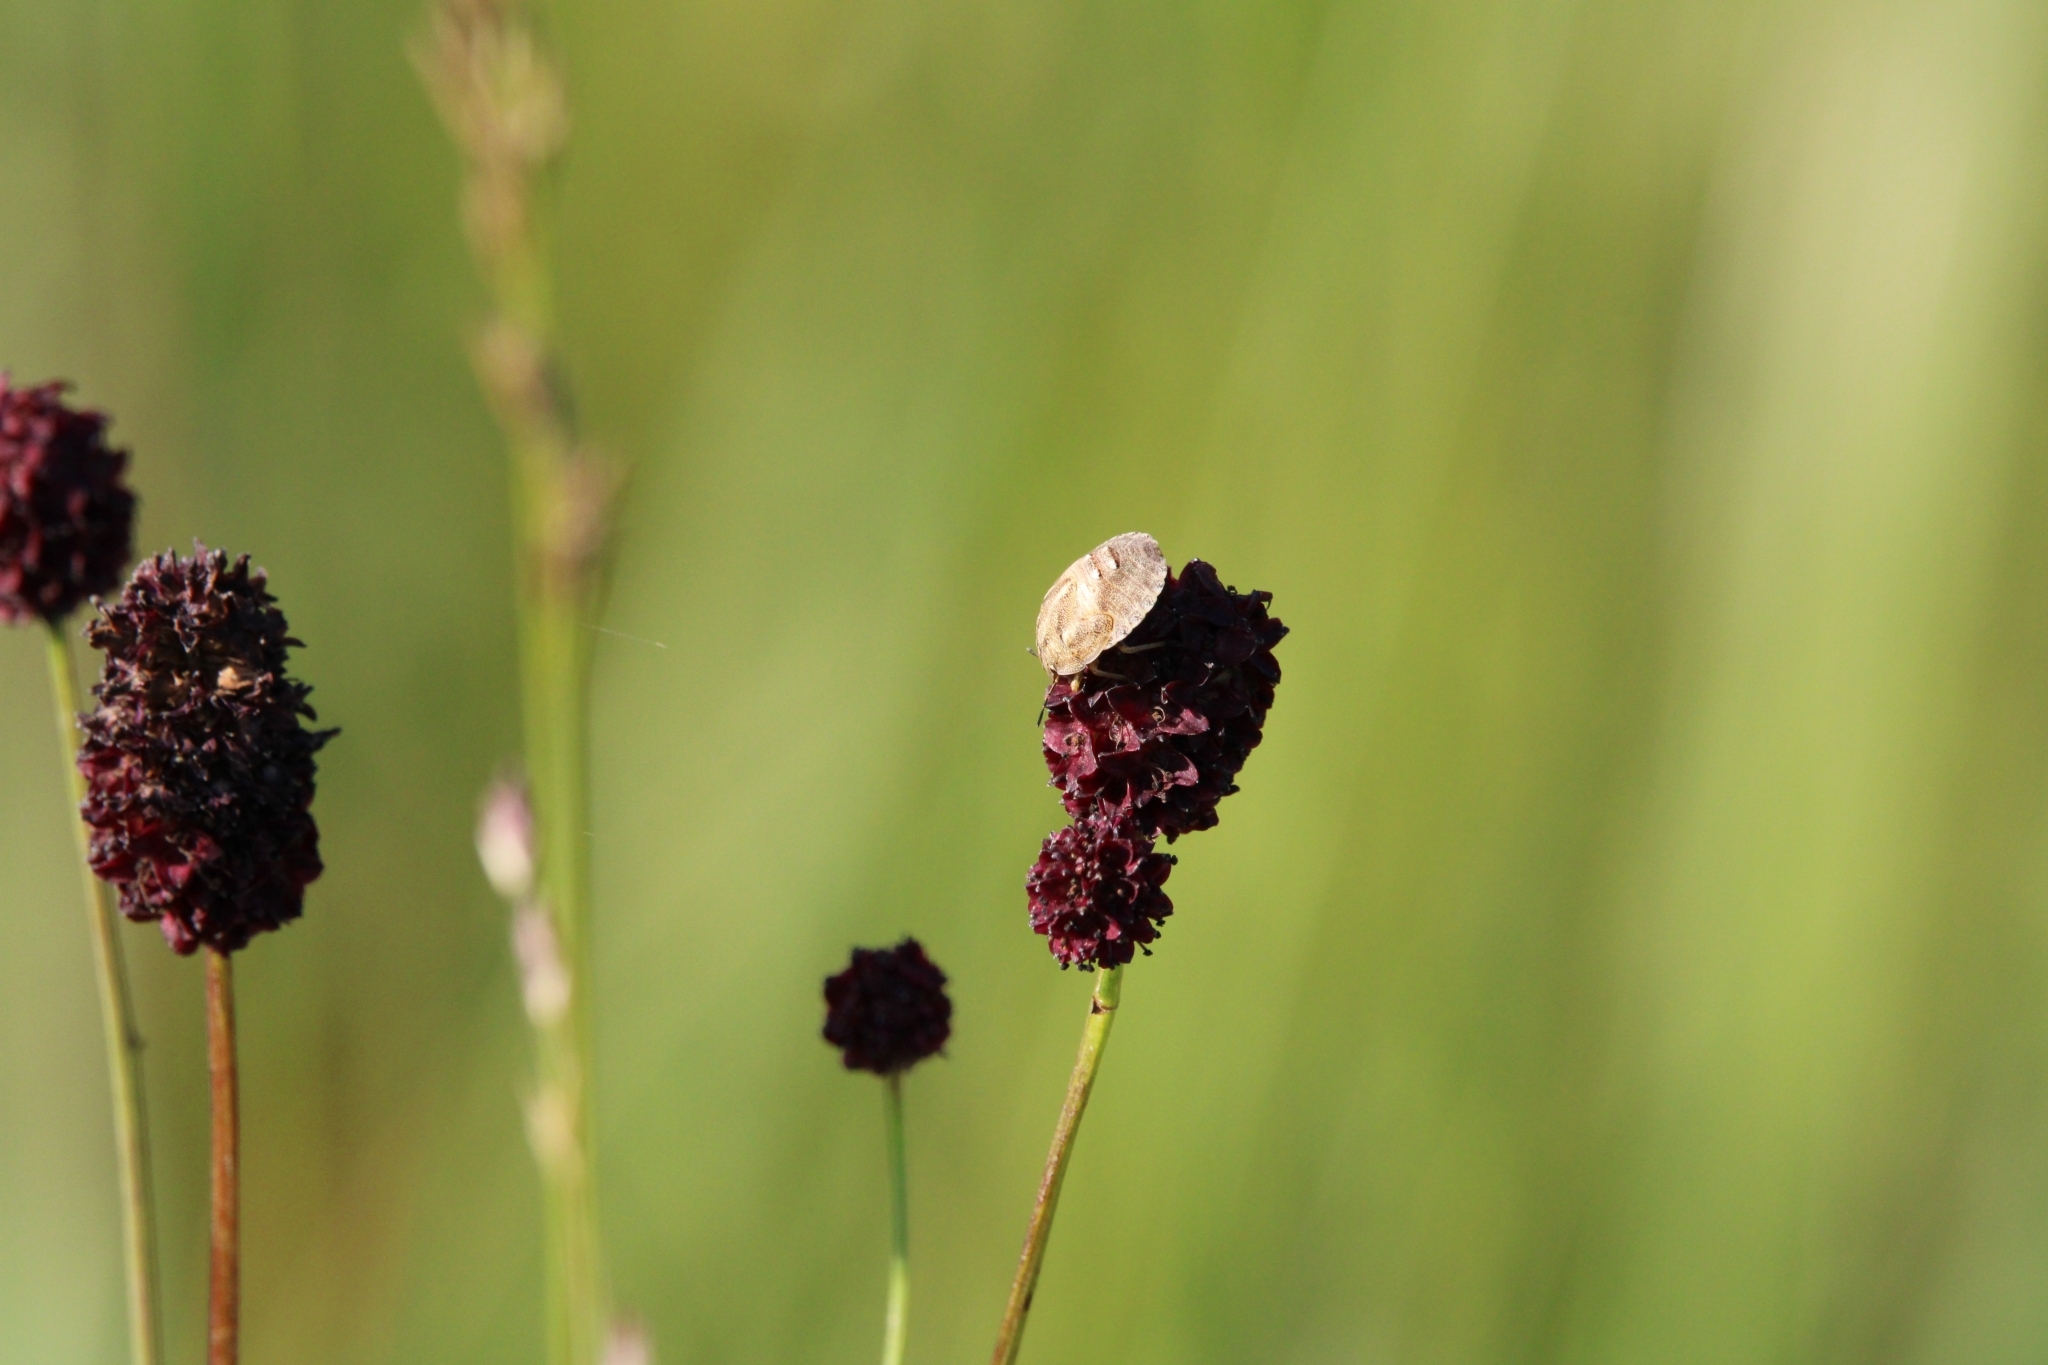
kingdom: Animalia
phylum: Arthropoda
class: Insecta
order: Hemiptera
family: Scutelleridae
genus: Eurygaster
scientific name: Eurygaster maura
